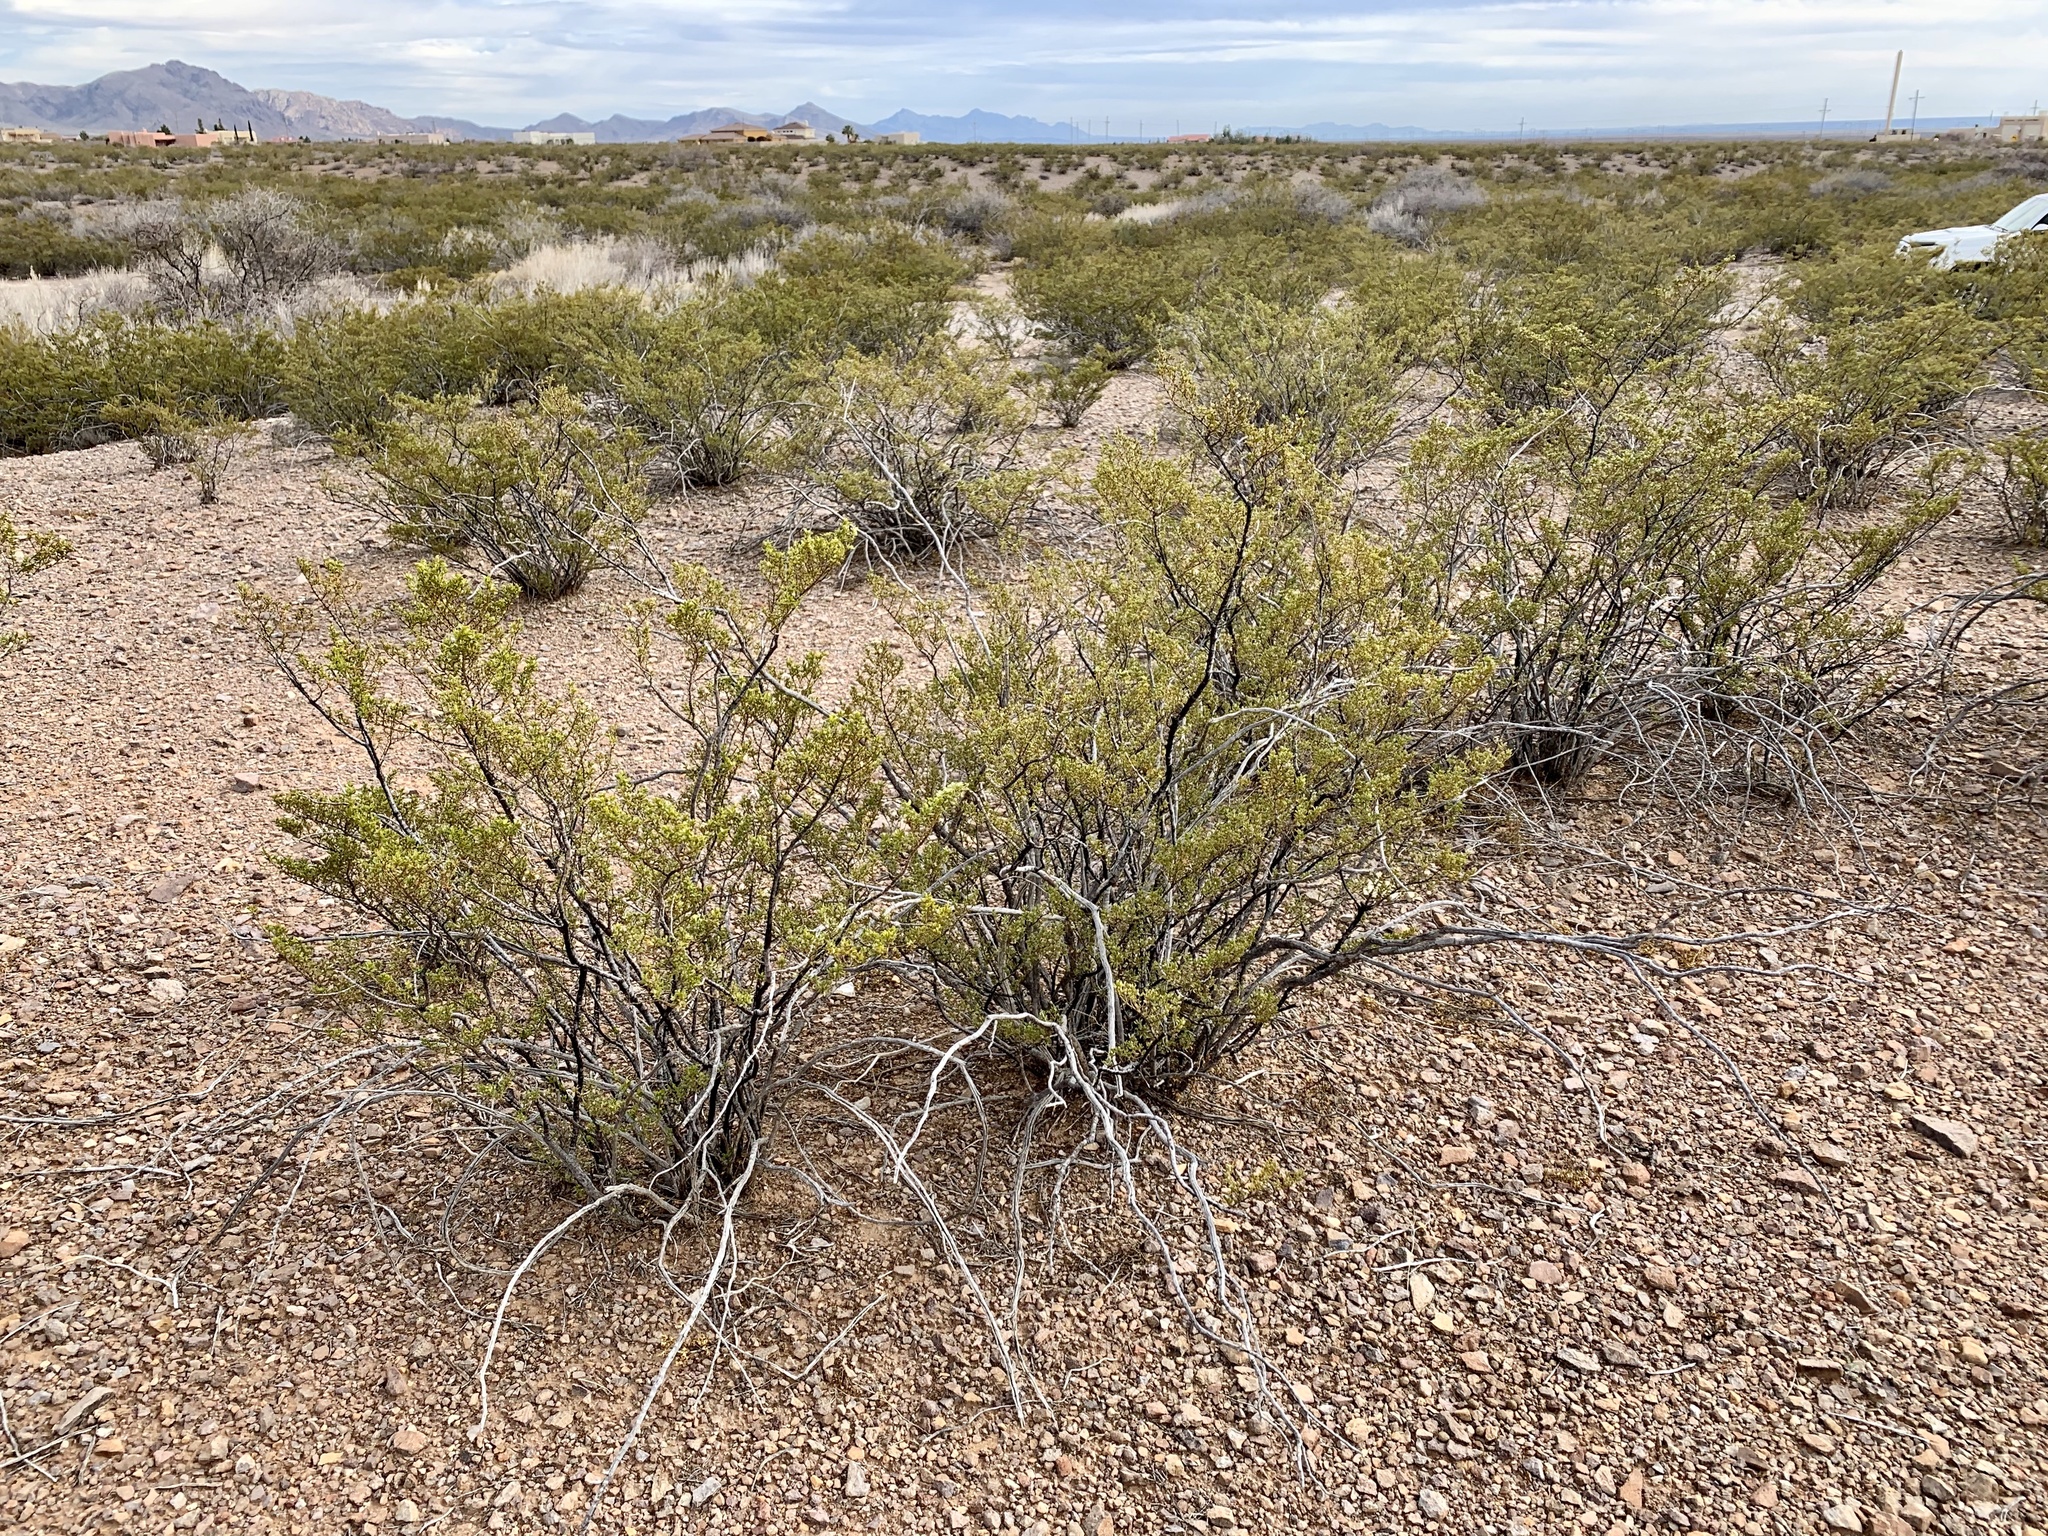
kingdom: Plantae
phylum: Tracheophyta
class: Magnoliopsida
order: Zygophyllales
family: Zygophyllaceae
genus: Larrea
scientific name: Larrea tridentata
